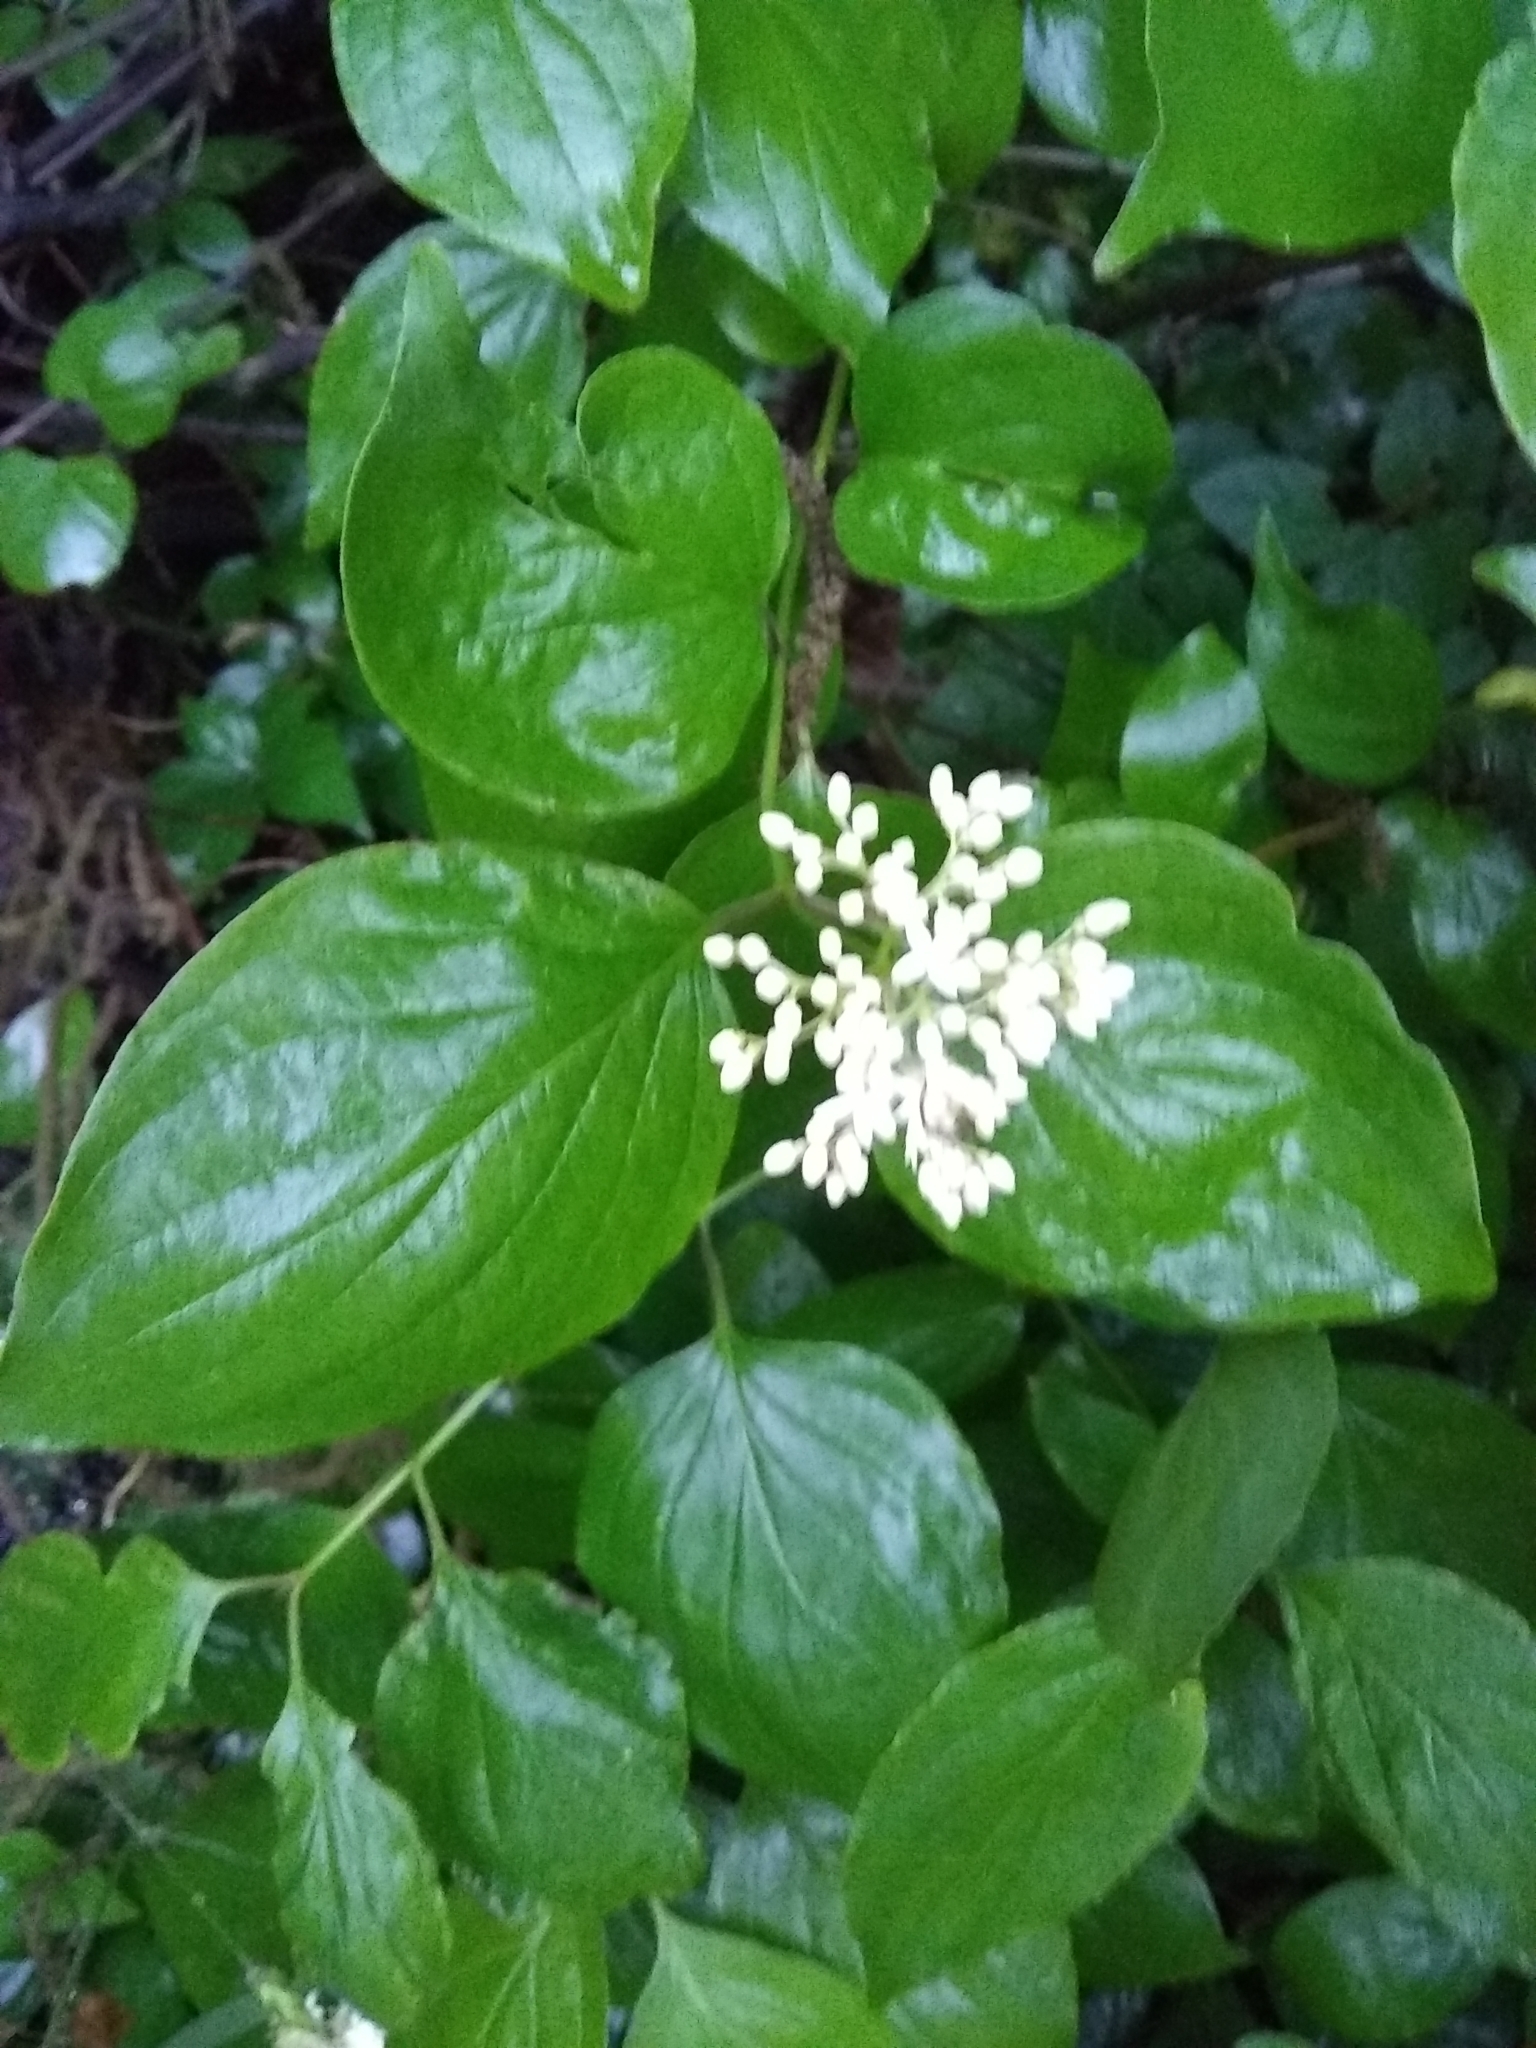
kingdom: Plantae
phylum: Tracheophyta
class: Magnoliopsida
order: Cornales
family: Cornaceae
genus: Cornus
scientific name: Cornus drummondii
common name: Rough-leaf dogwood
